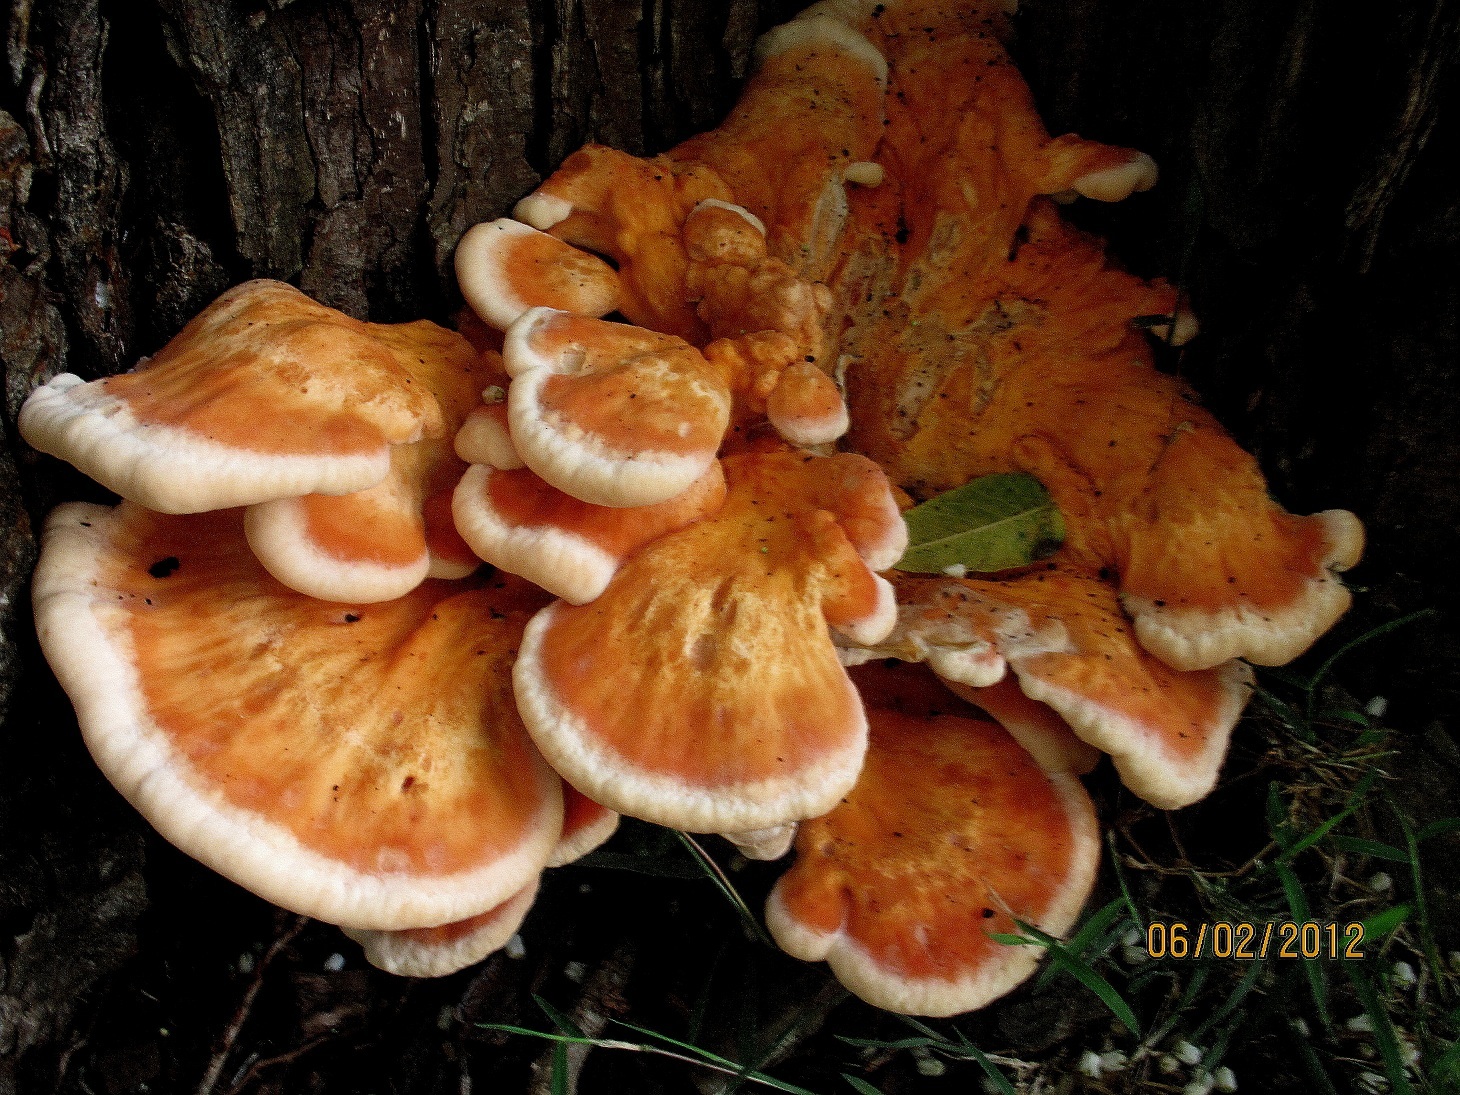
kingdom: Fungi
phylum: Basidiomycota
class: Agaricomycetes
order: Polyporales
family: Laetiporaceae
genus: Laetiporus
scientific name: Laetiporus sulphureus
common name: Chicken of the woods
